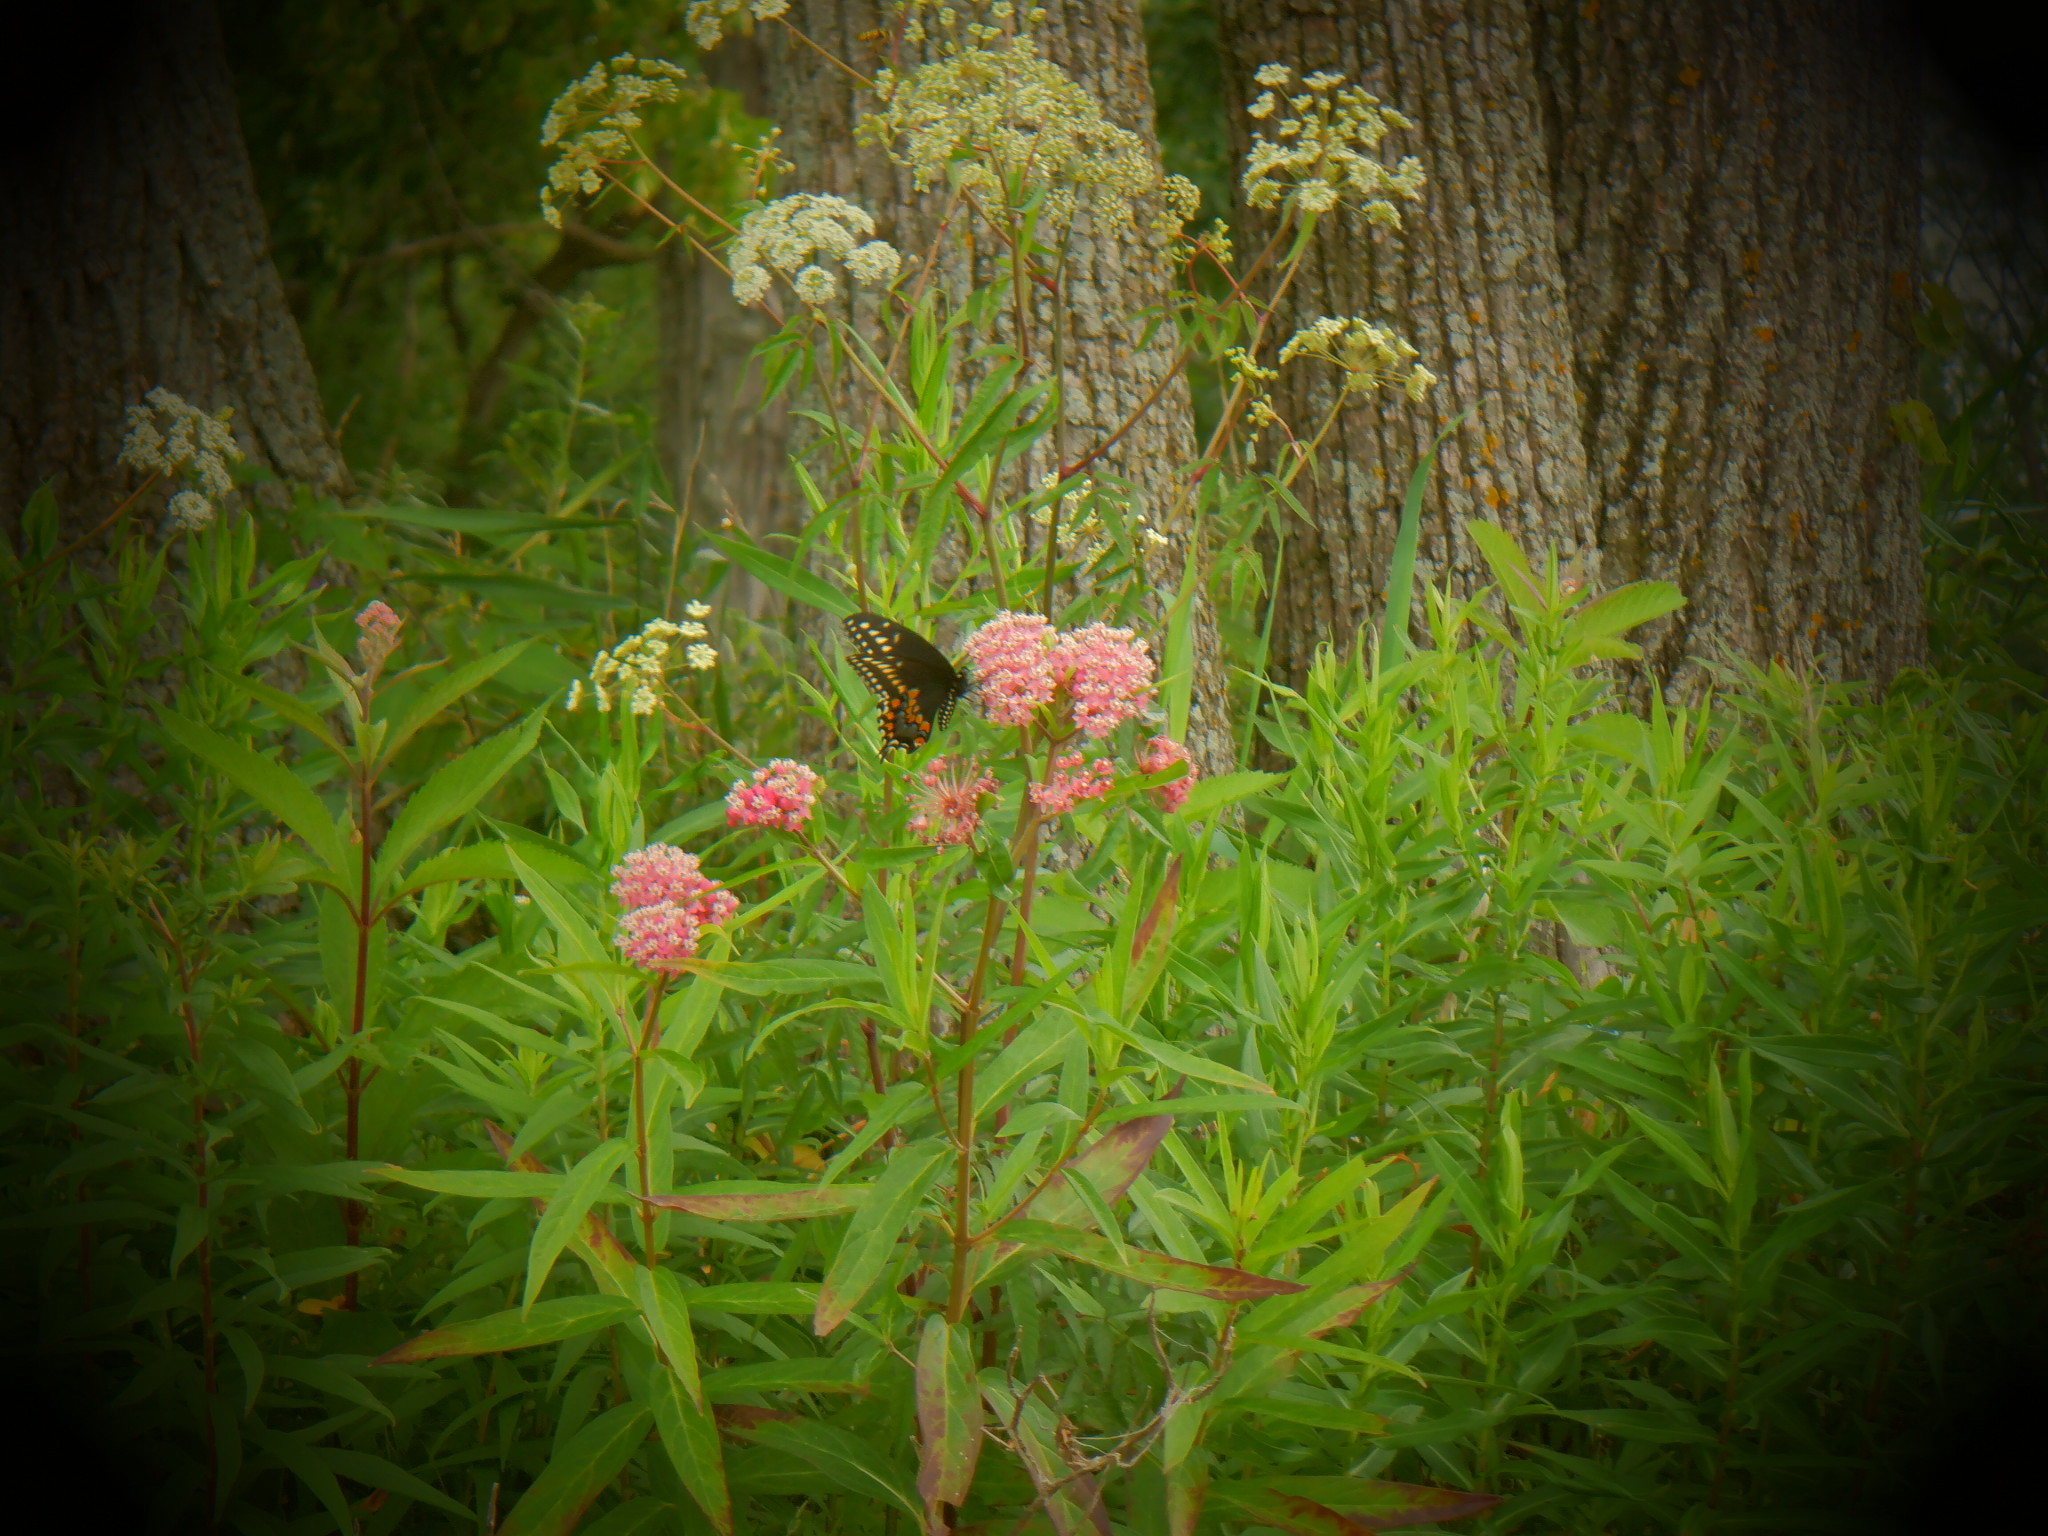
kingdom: Animalia
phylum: Arthropoda
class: Insecta
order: Lepidoptera
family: Papilionidae
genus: Papilio
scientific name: Papilio polyxenes
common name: Black swallowtail
